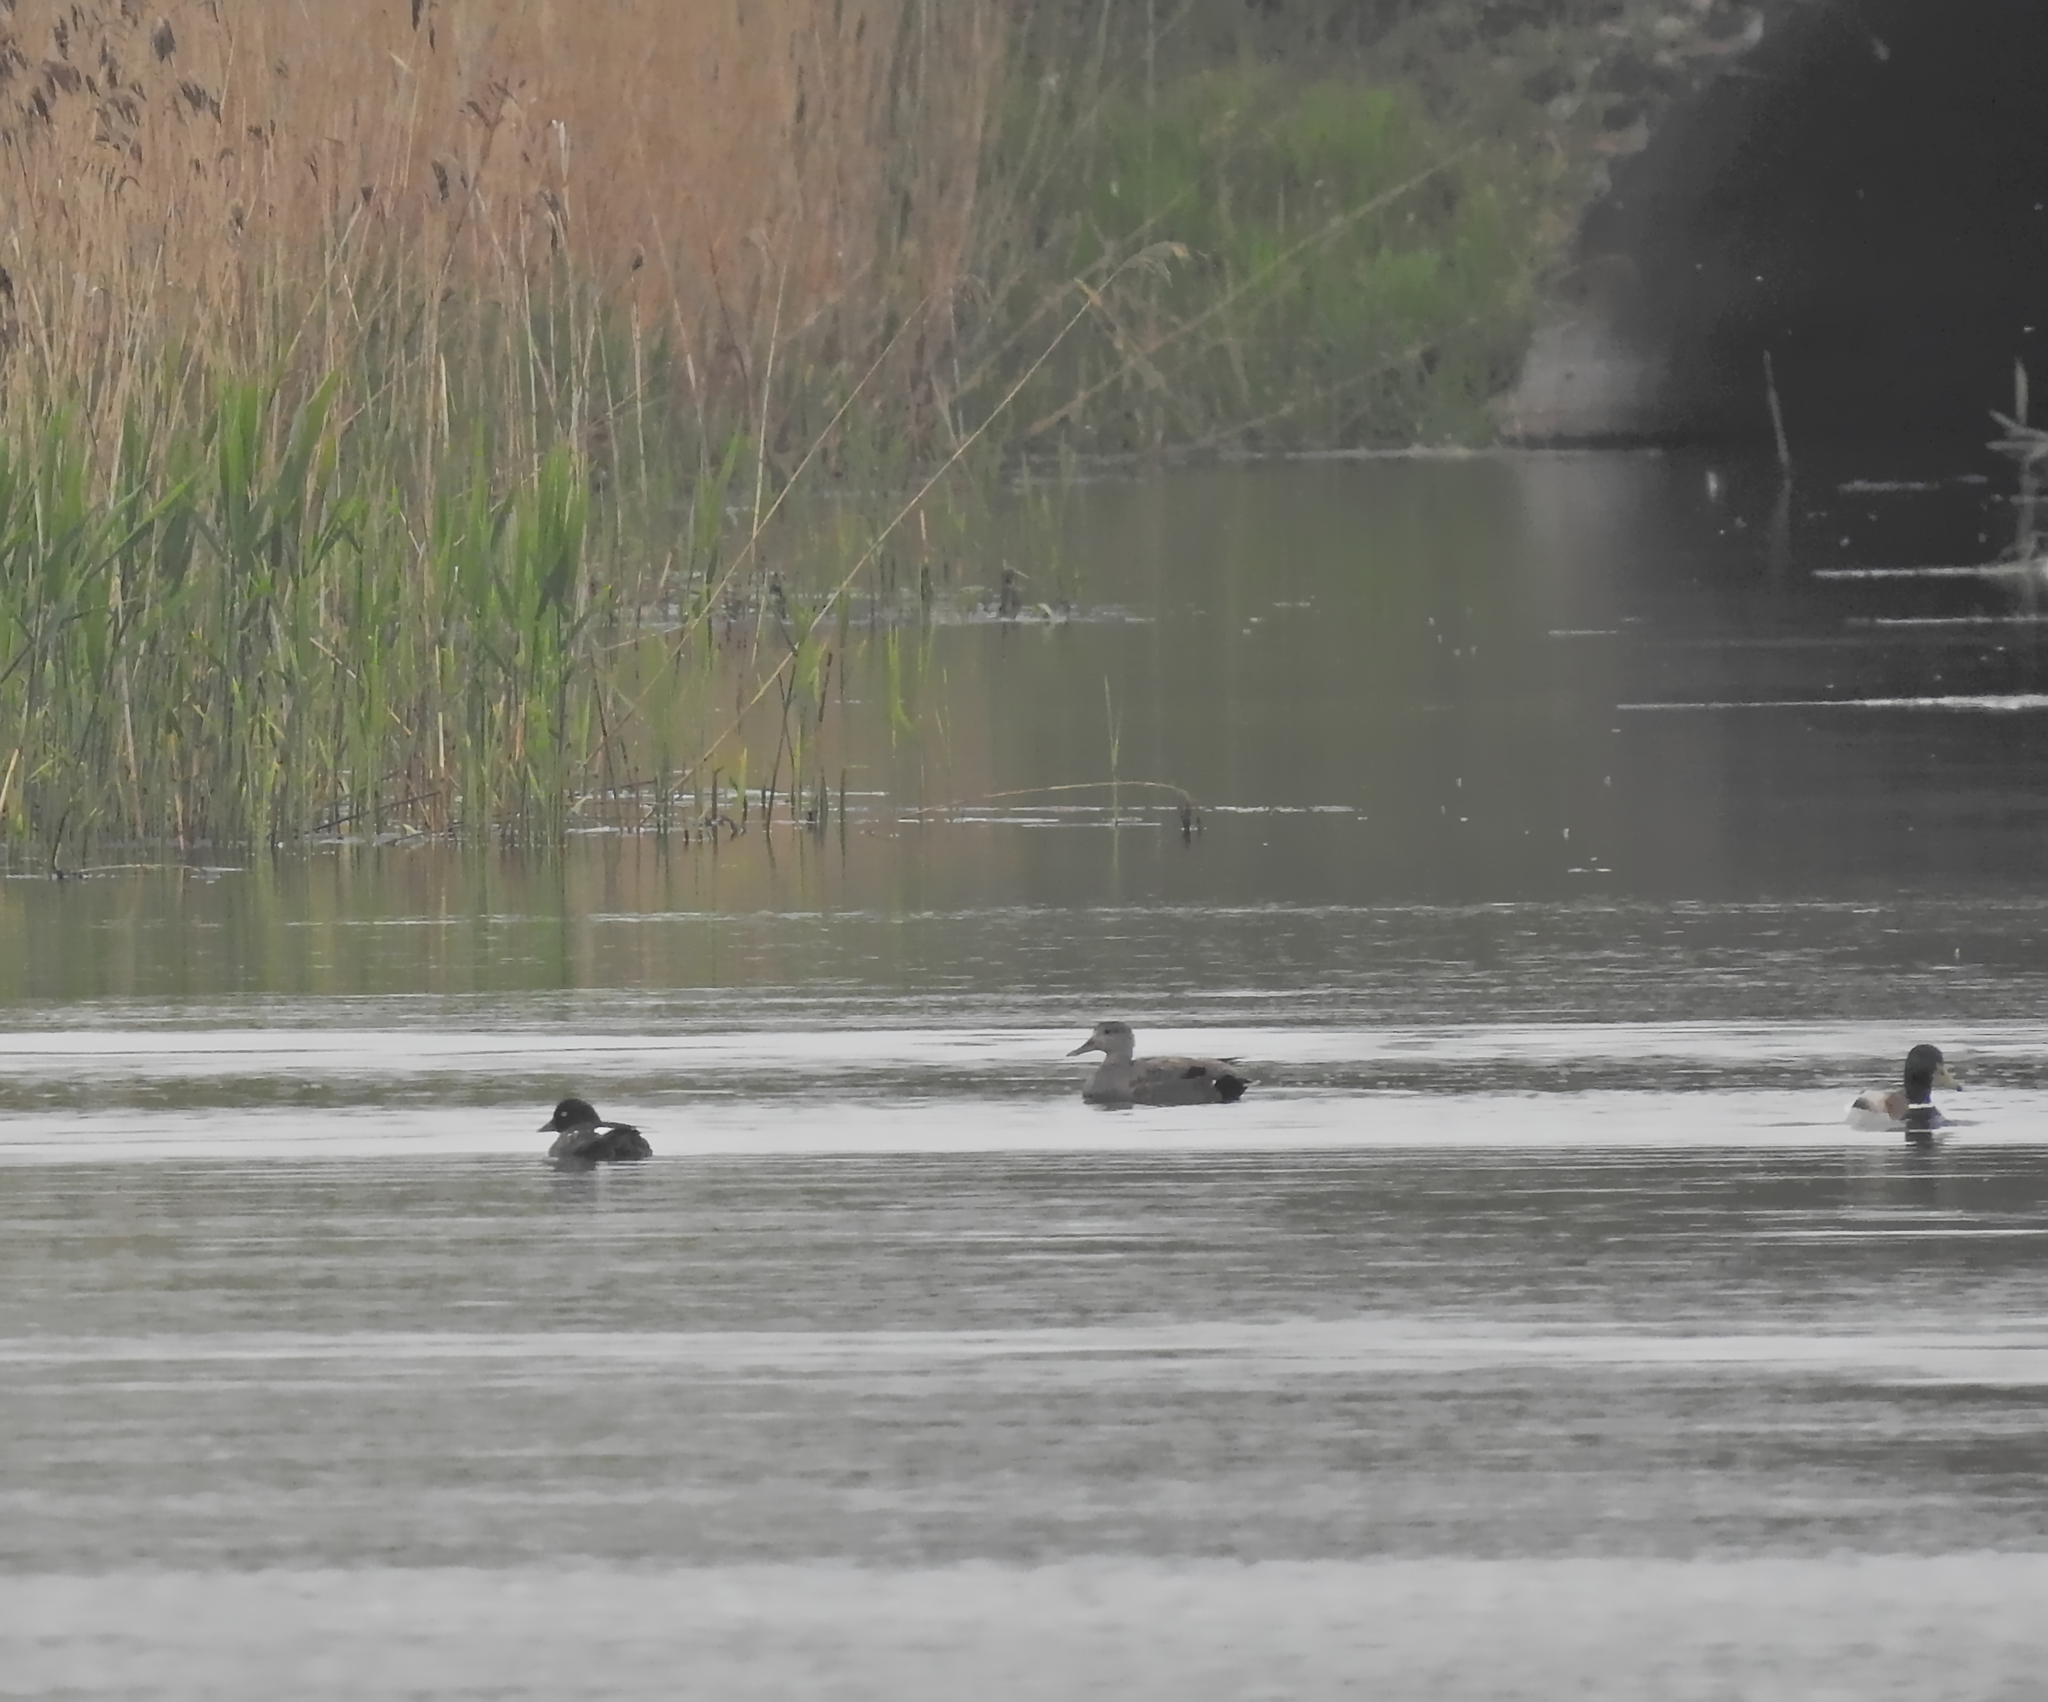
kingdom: Animalia
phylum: Chordata
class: Aves
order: Anseriformes
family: Anatidae
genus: Mareca
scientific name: Mareca strepera
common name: Gadwall
